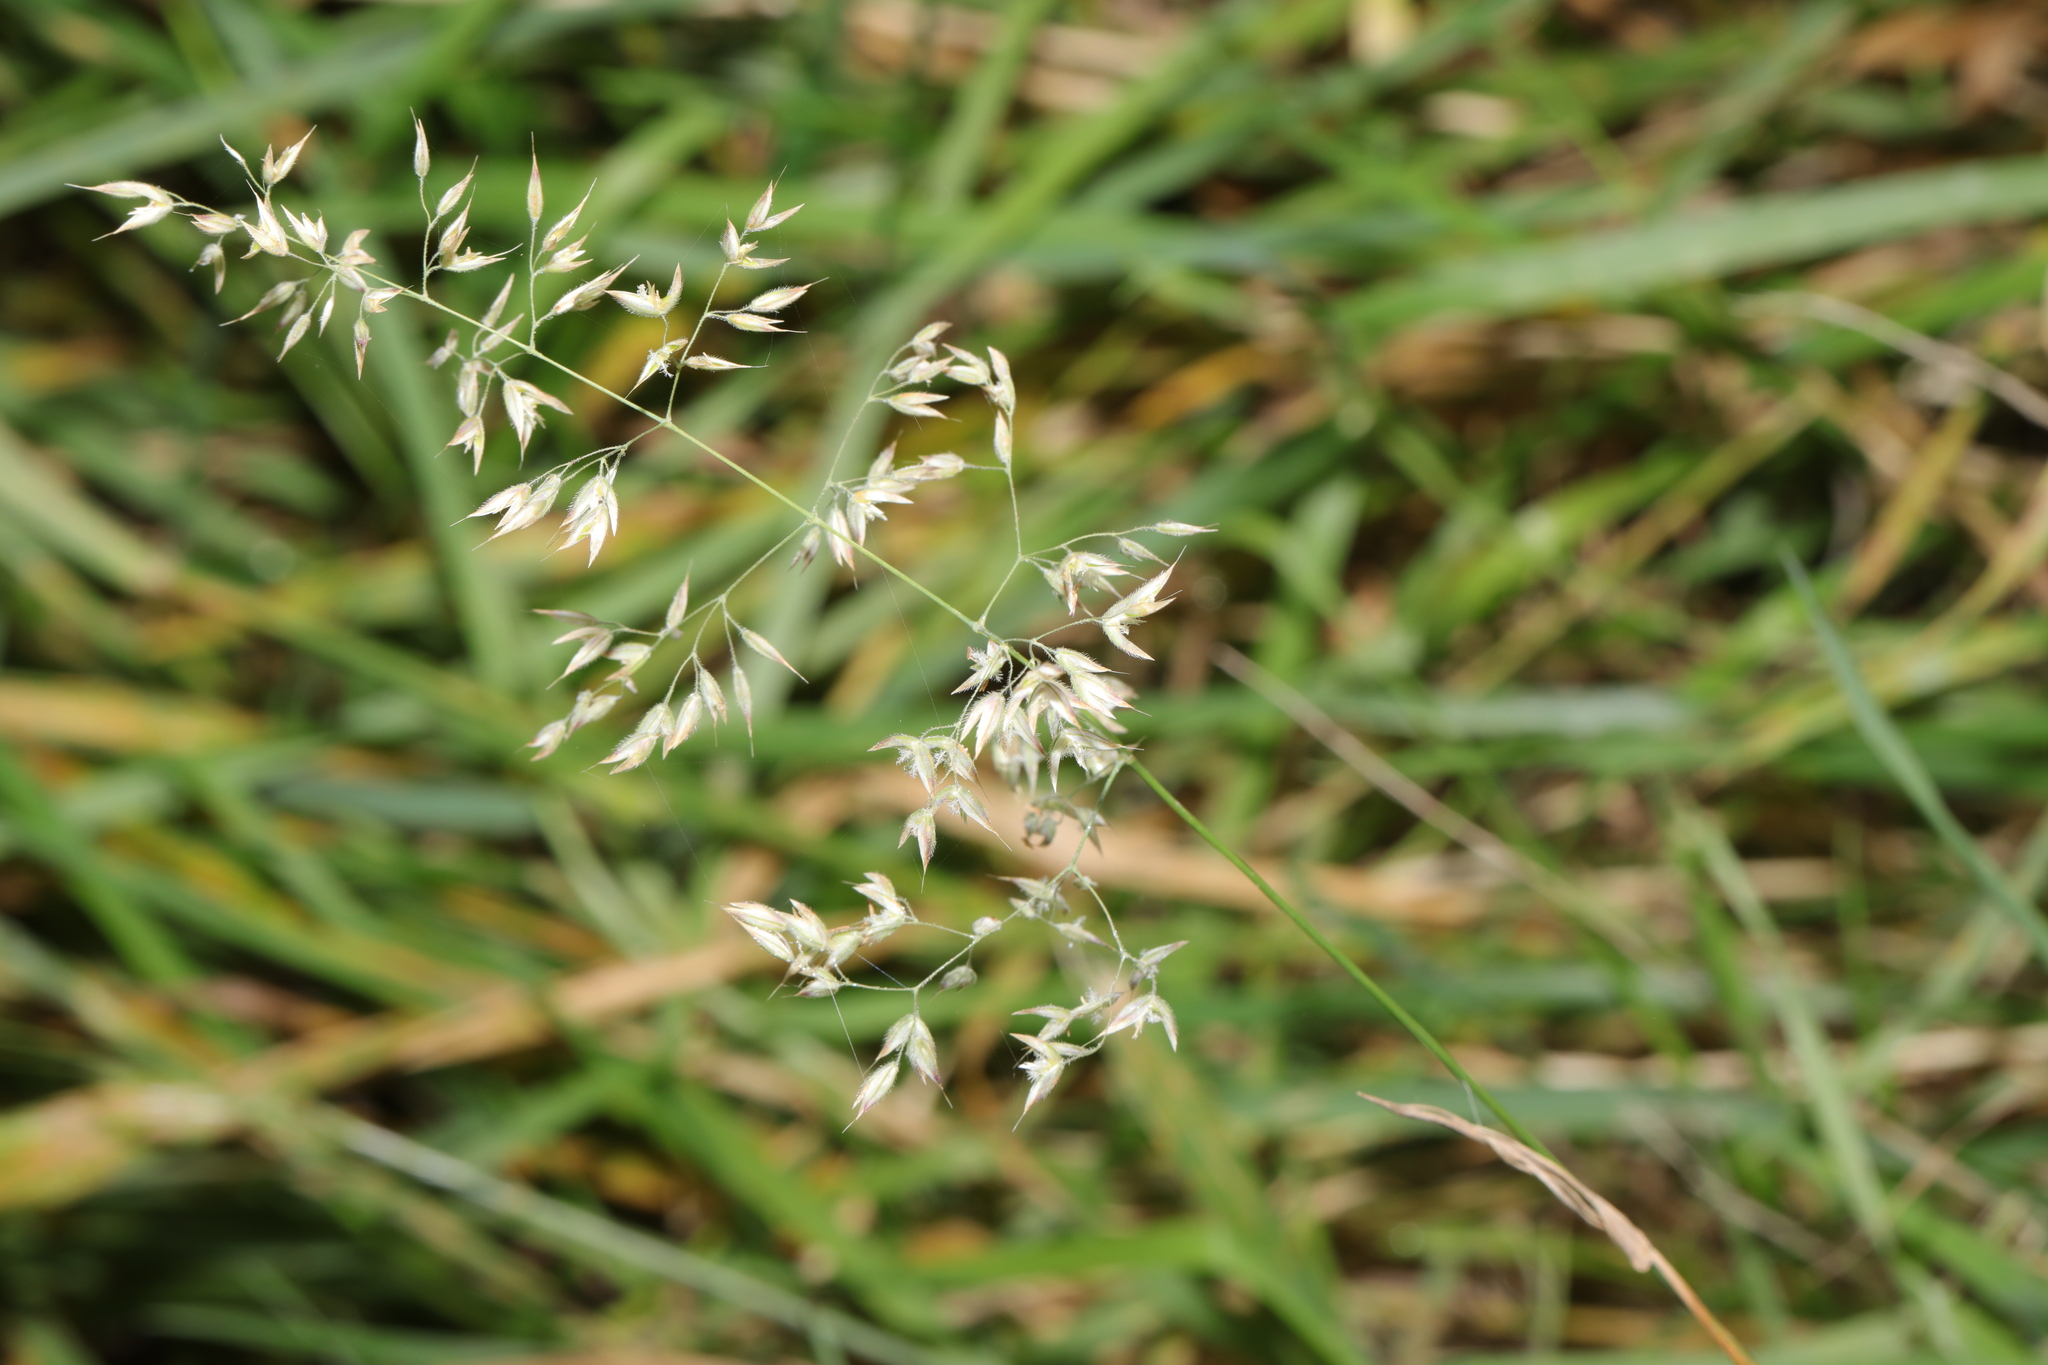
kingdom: Plantae
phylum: Tracheophyta
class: Liliopsida
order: Poales
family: Poaceae
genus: Holcus
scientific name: Holcus mollis
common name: Creeping velvetgrass
